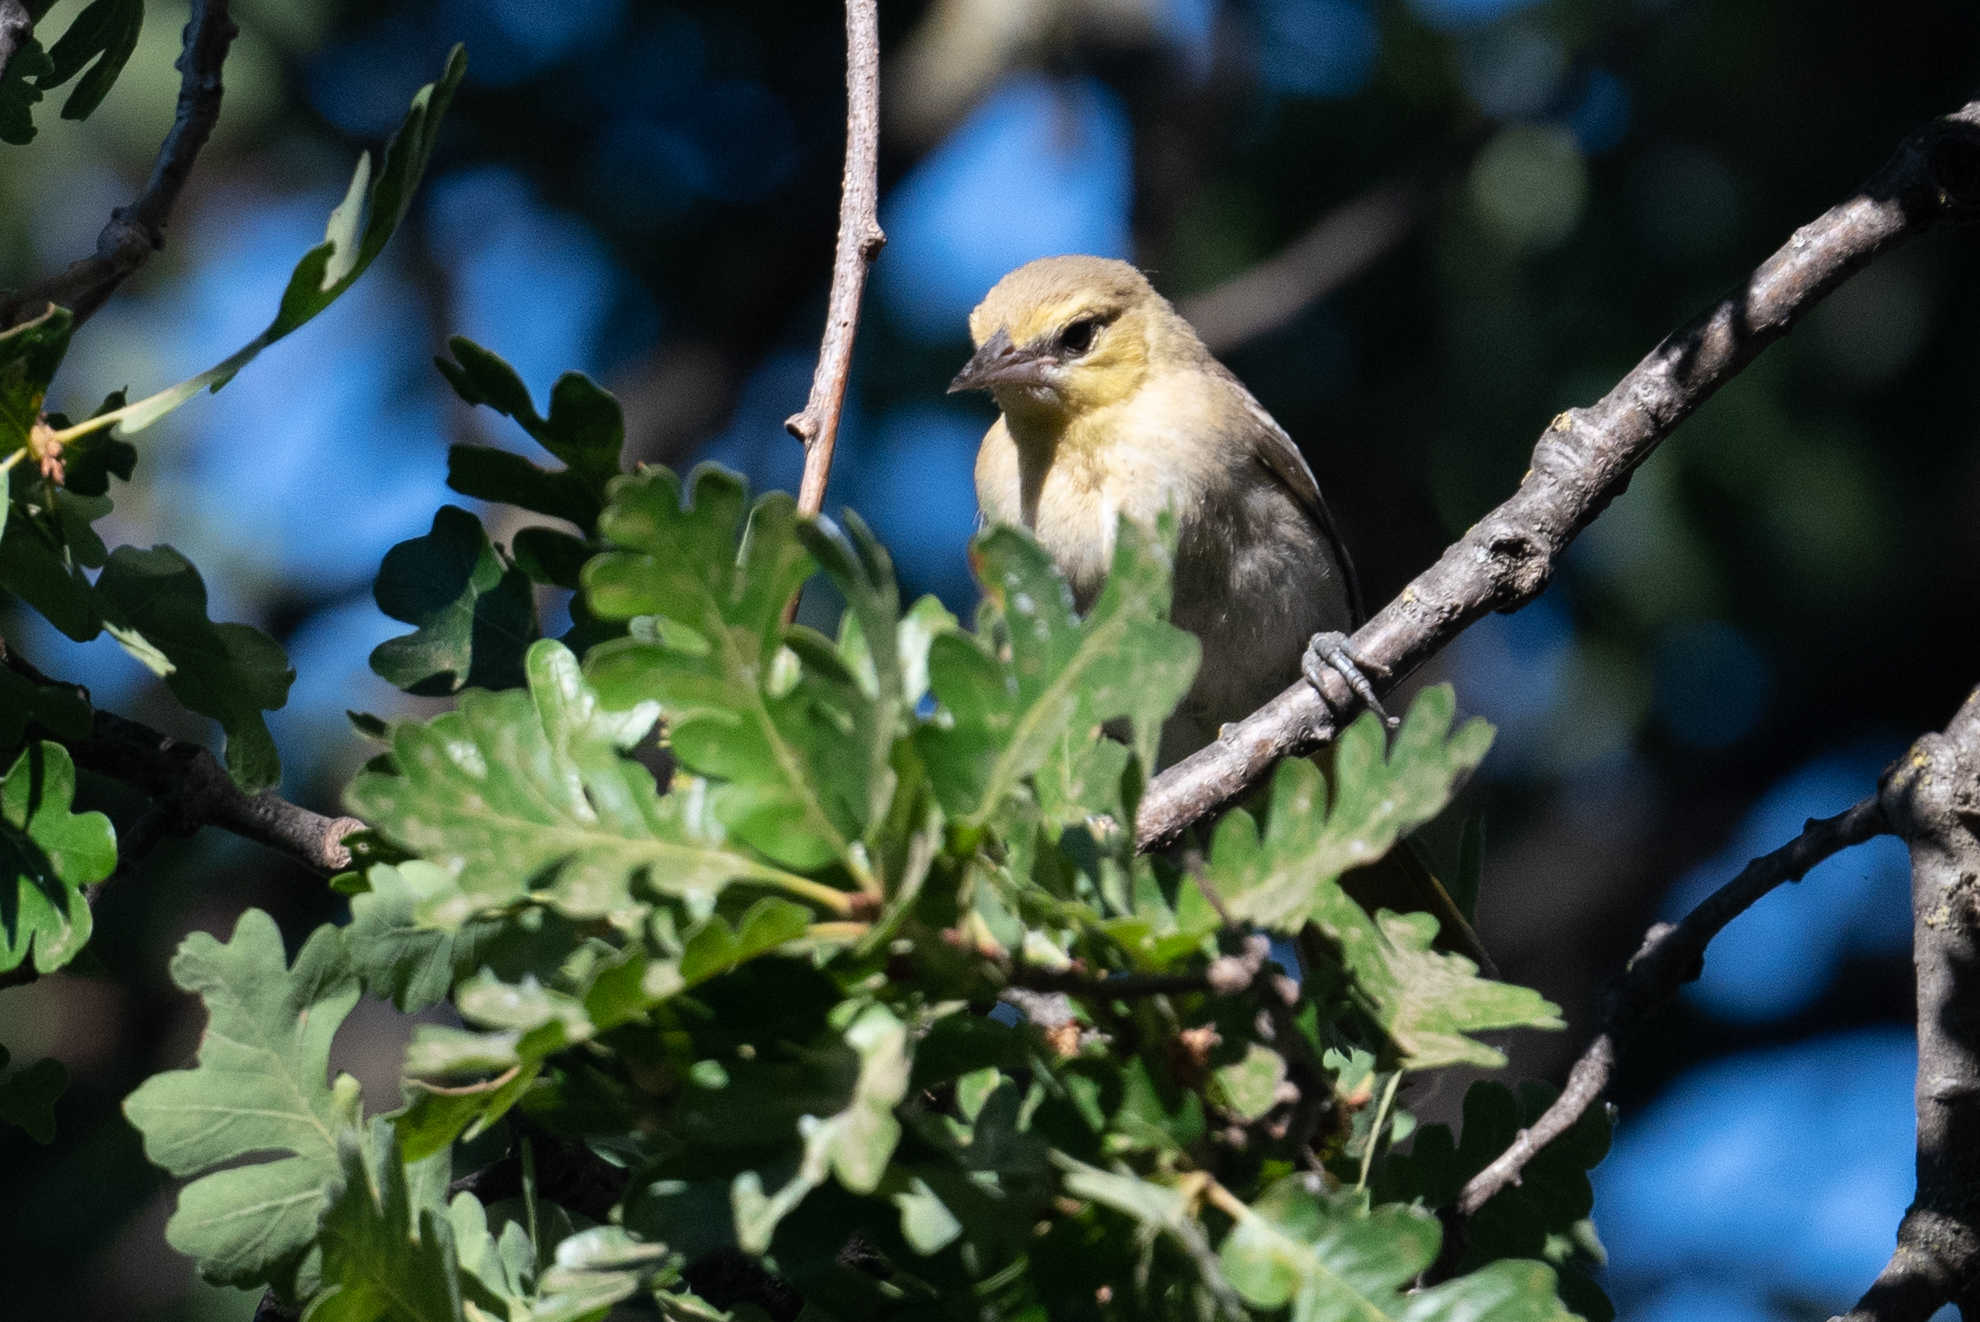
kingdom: Animalia
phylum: Chordata
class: Aves
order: Passeriformes
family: Icteridae
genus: Icterus
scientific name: Icterus bullockii
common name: Bullock's oriole
